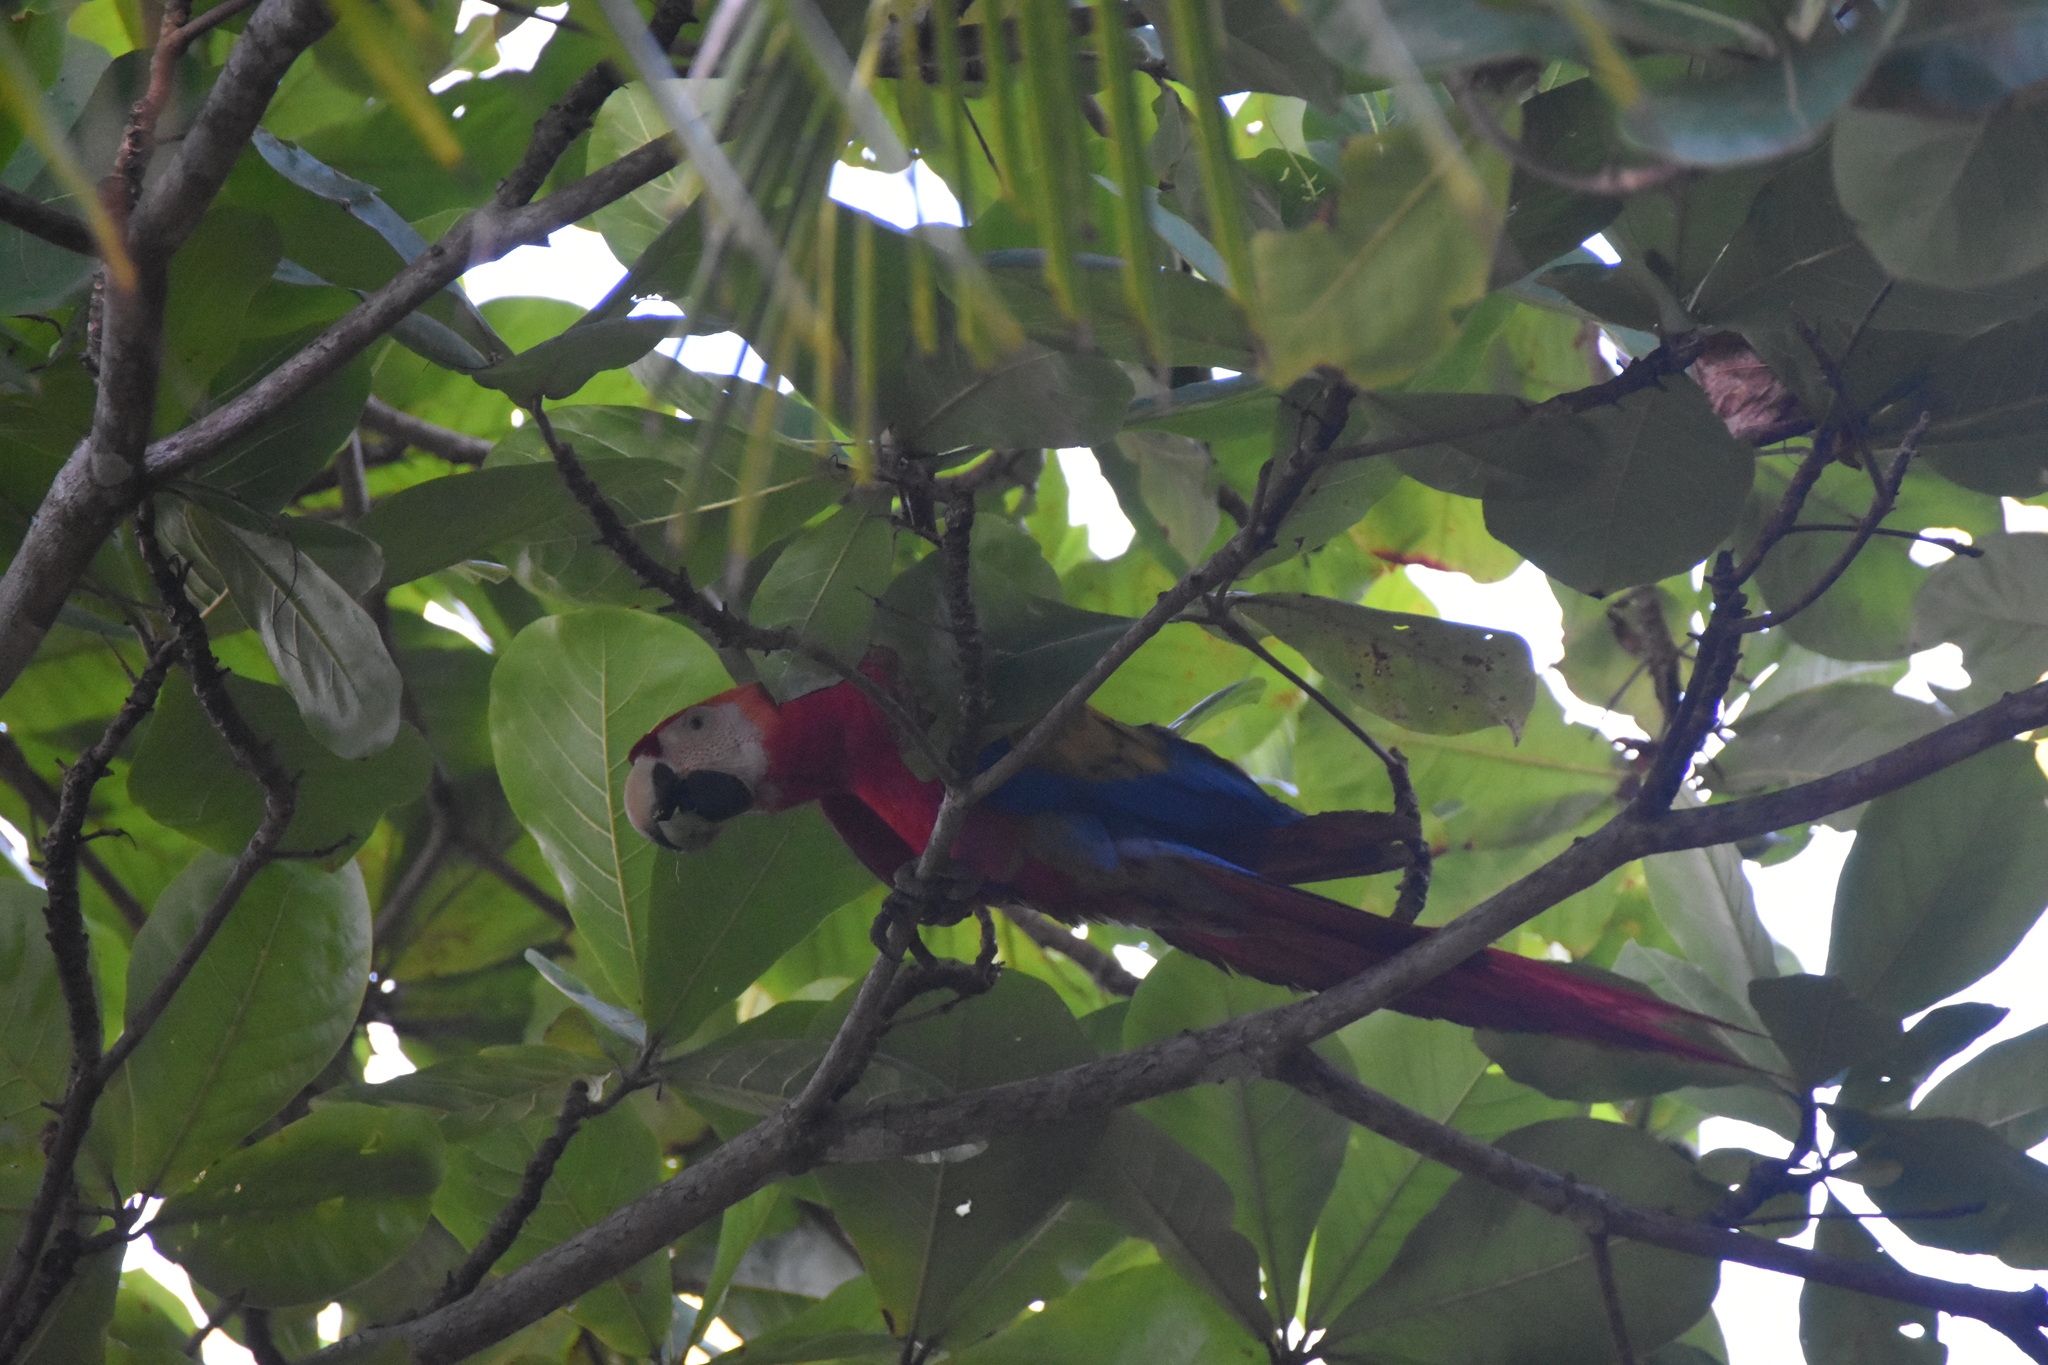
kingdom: Animalia
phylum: Chordata
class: Aves
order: Psittaciformes
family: Psittacidae
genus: Ara
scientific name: Ara macao
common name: Scarlet macaw
